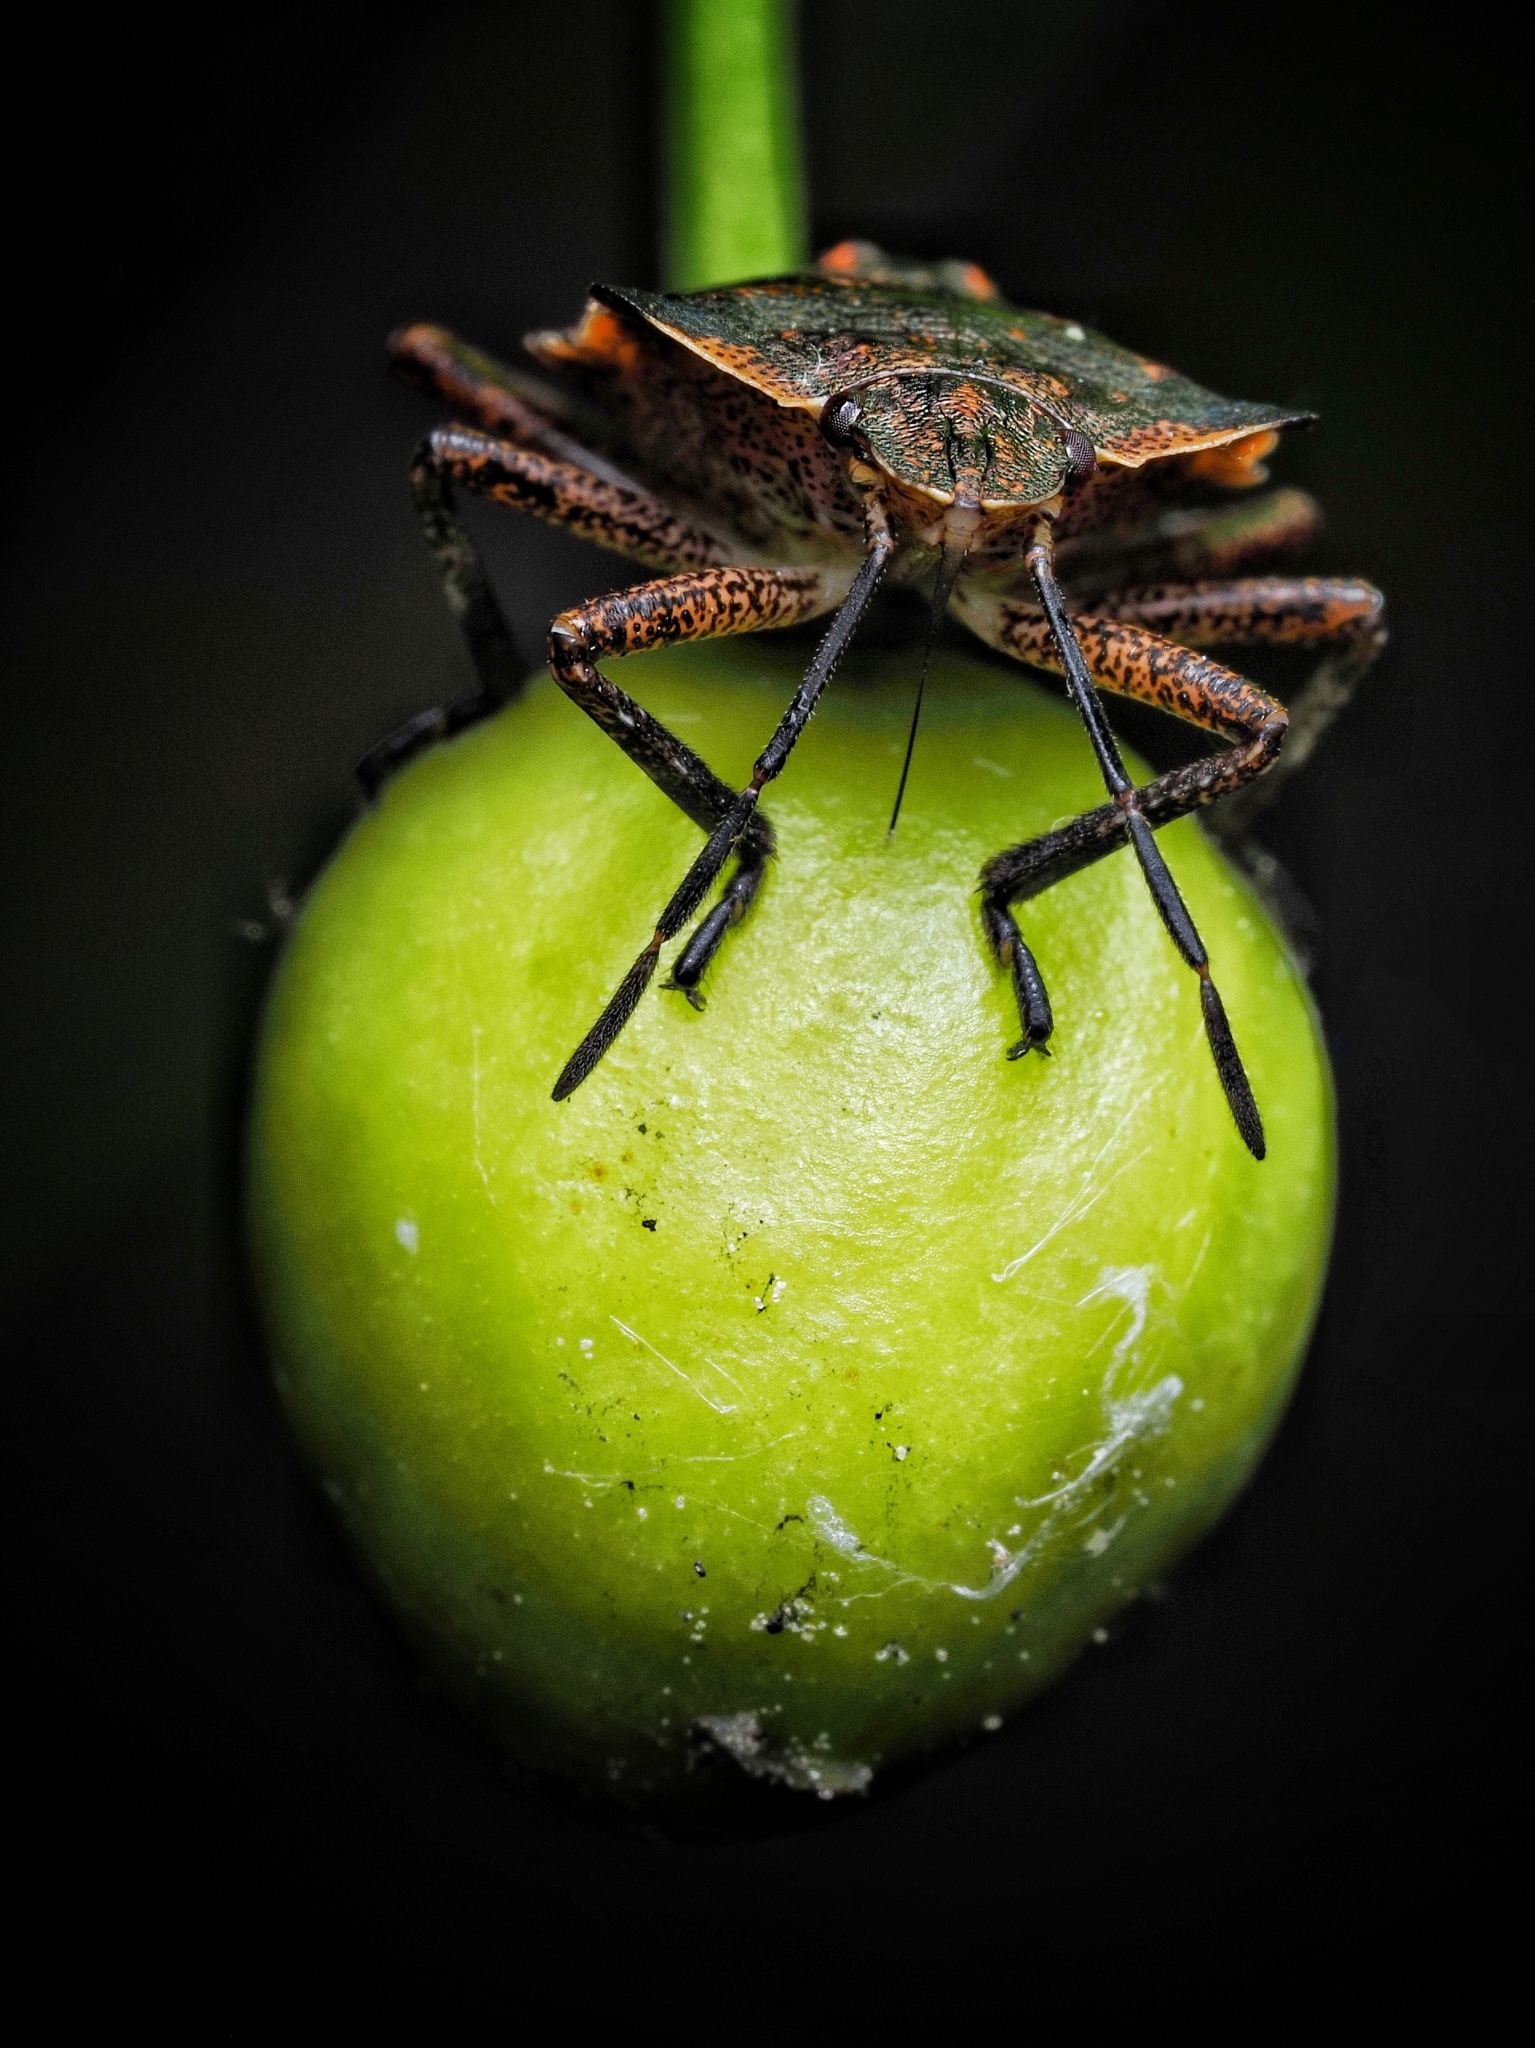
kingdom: Animalia
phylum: Arthropoda
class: Insecta
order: Hemiptera
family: Pentatomidae
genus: Pentatoma
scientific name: Pentatoma rufipes
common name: Forest bug
